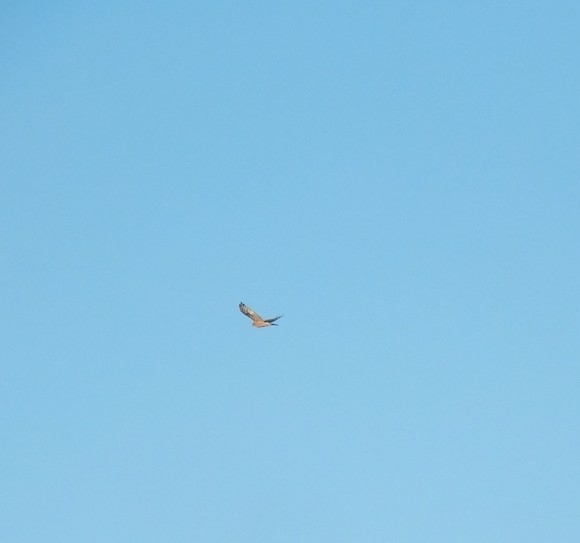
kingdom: Animalia
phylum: Chordata
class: Aves
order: Accipitriformes
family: Accipitridae
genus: Circus
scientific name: Circus approximans
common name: Swamp harrier
